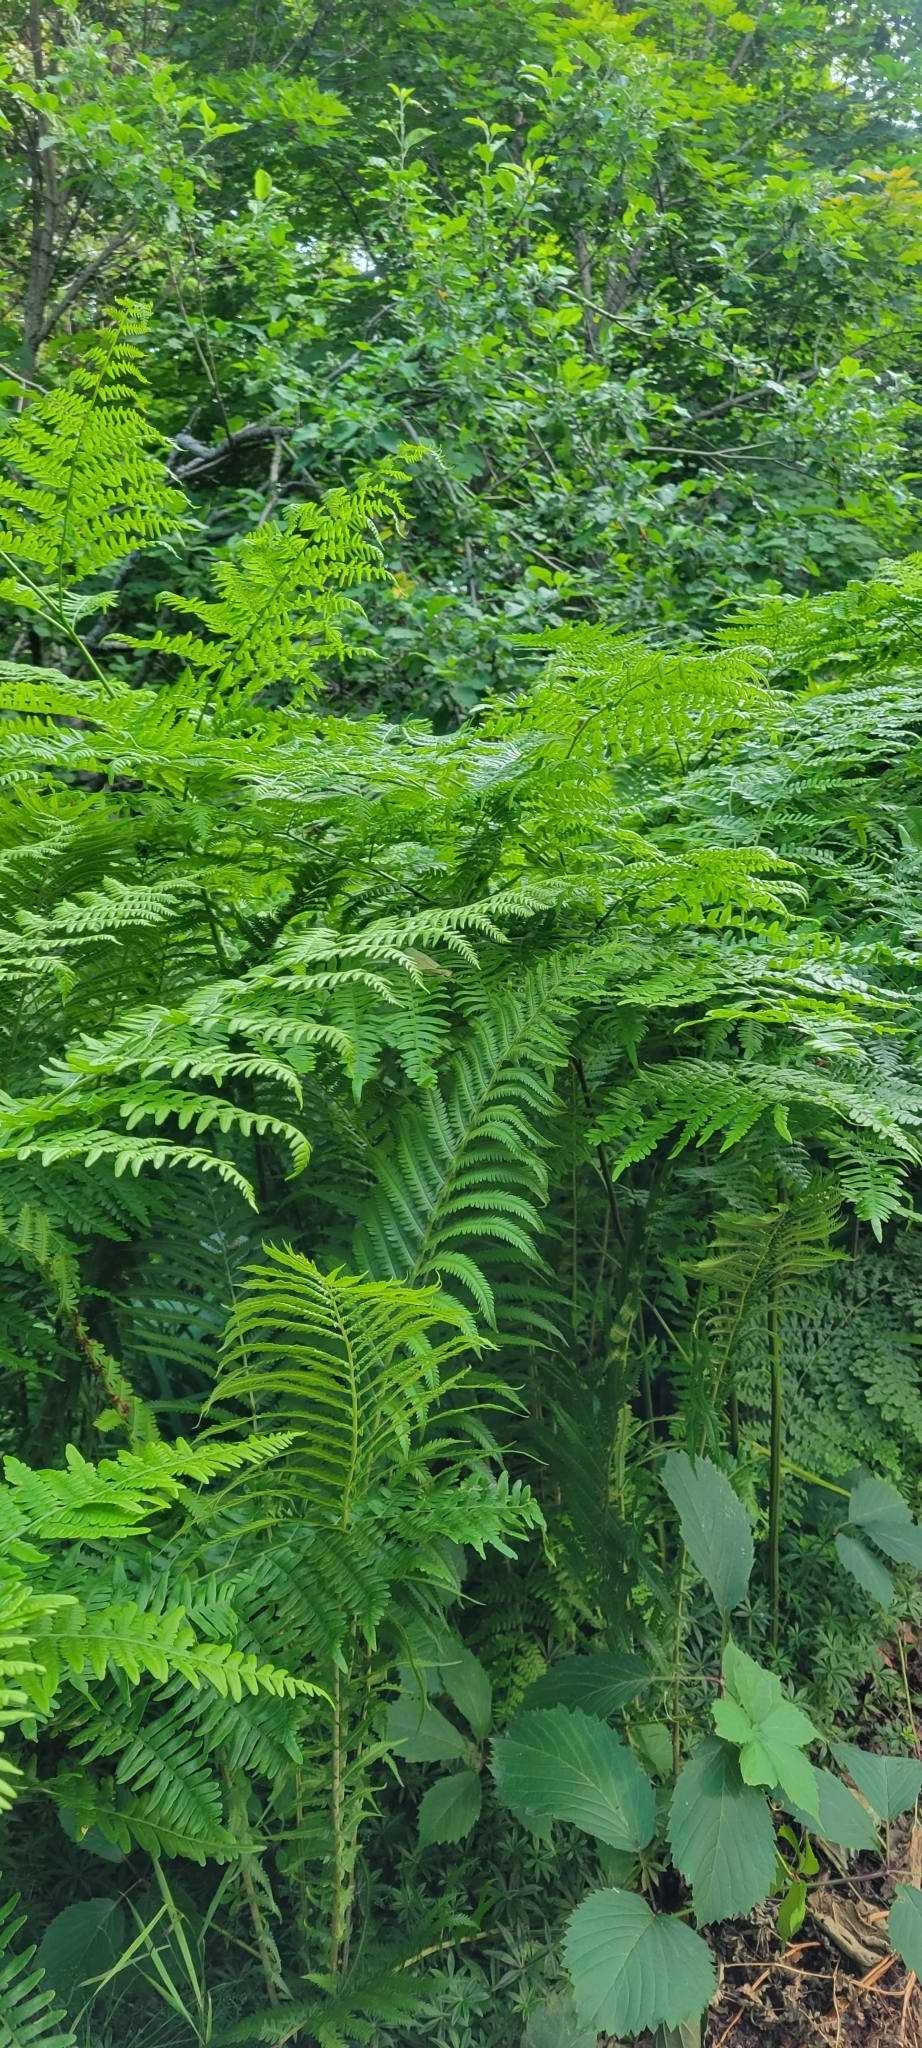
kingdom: Plantae
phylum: Tracheophyta
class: Polypodiopsida
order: Polypodiales
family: Onocleaceae
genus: Matteuccia
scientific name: Matteuccia struthiopteris
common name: Ostrich fern
